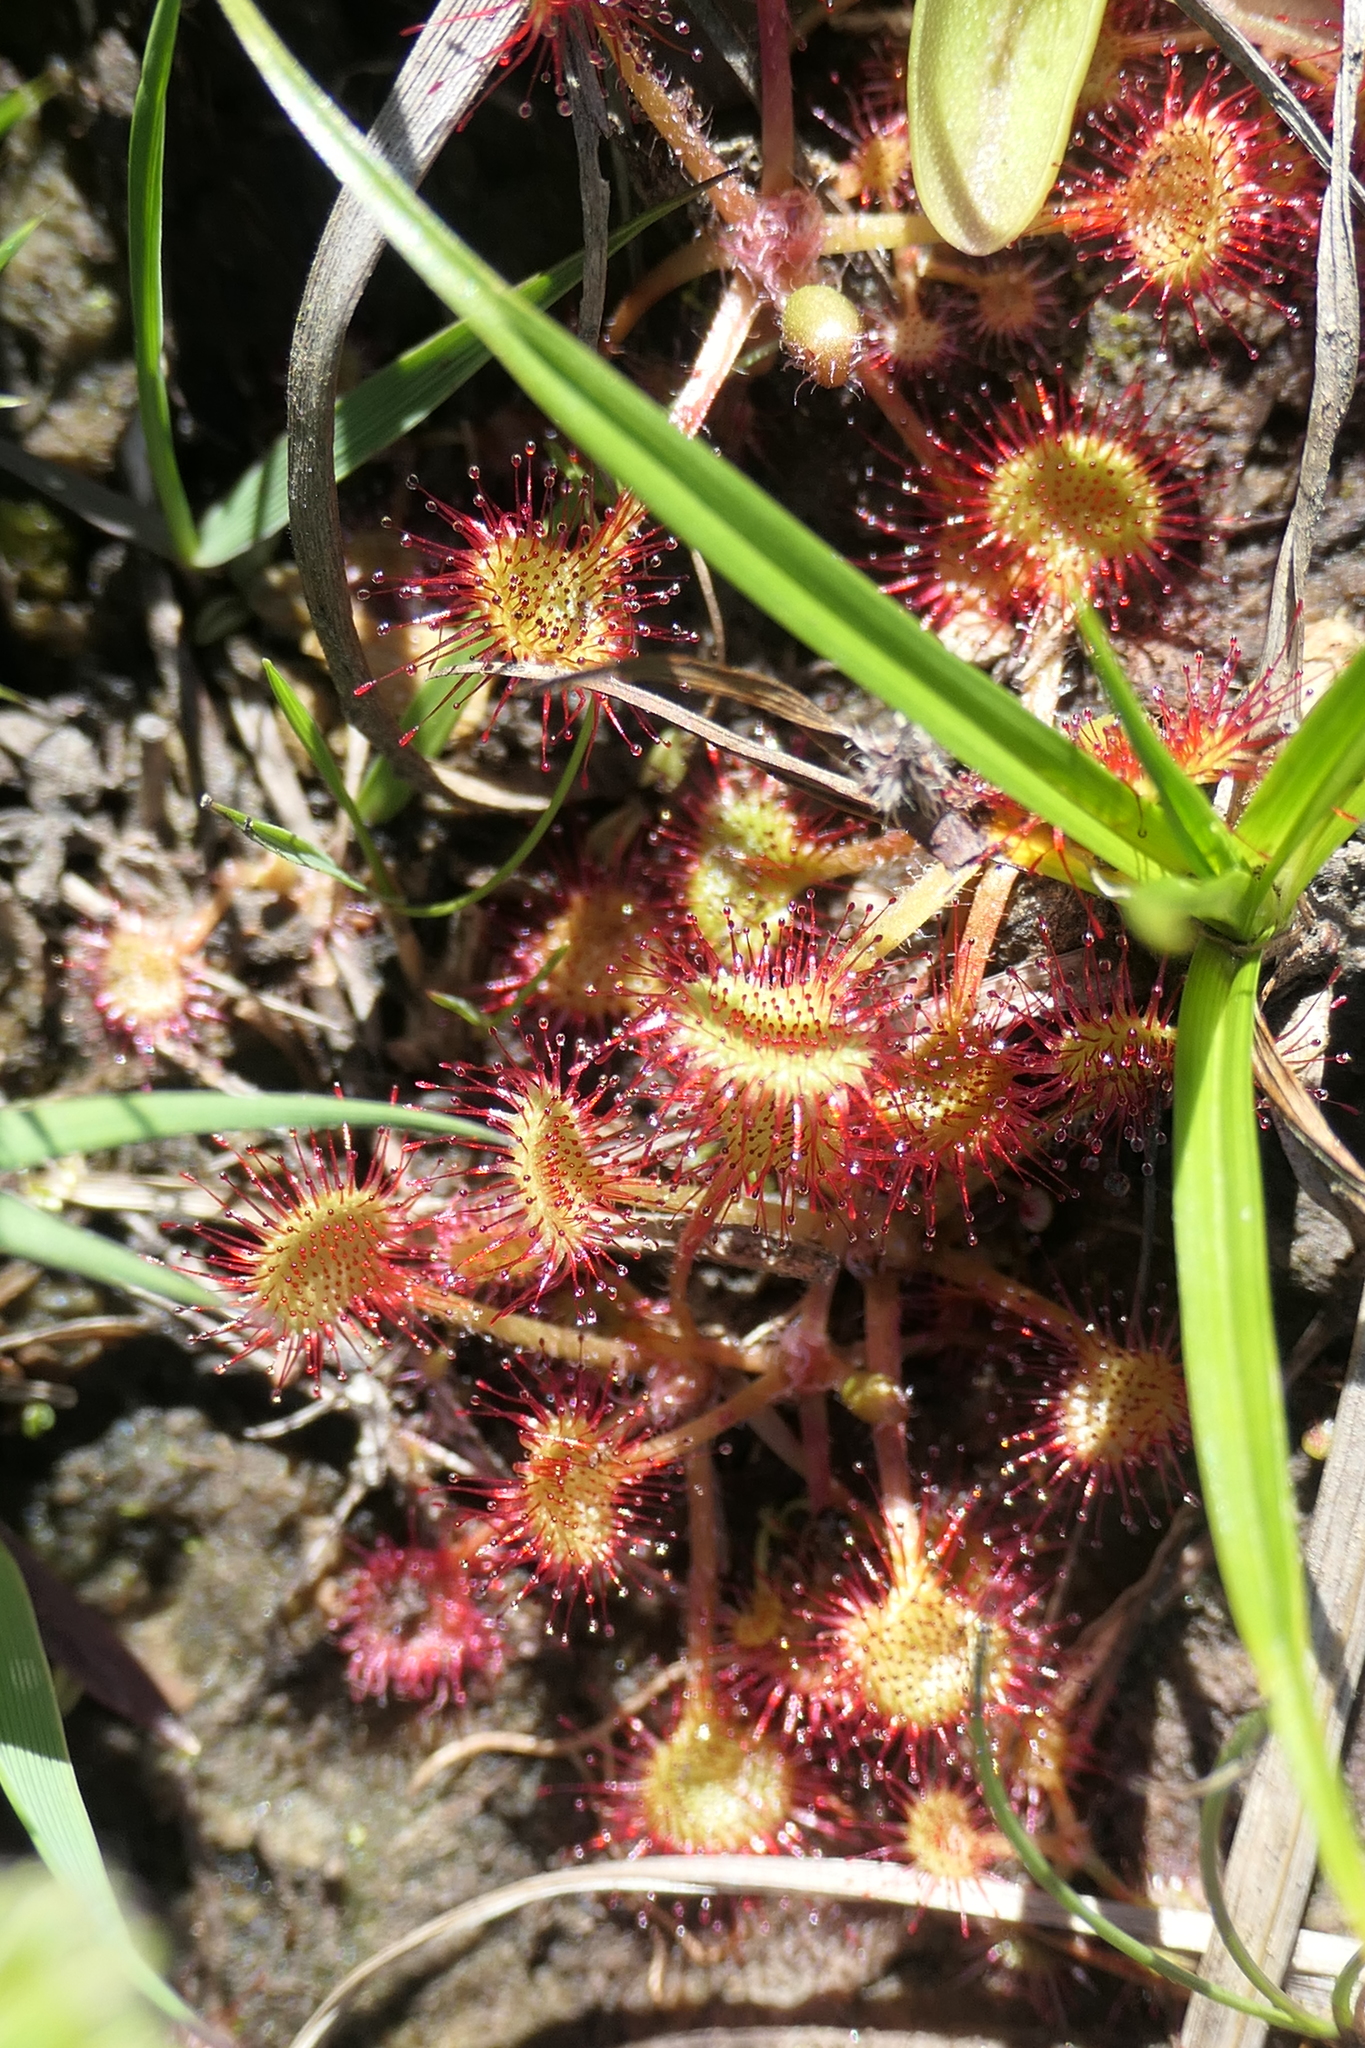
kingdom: Plantae
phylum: Tracheophyta
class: Magnoliopsida
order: Caryophyllales
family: Droseraceae
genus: Drosera
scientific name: Drosera rotundifolia
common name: Round-leaved sundew
